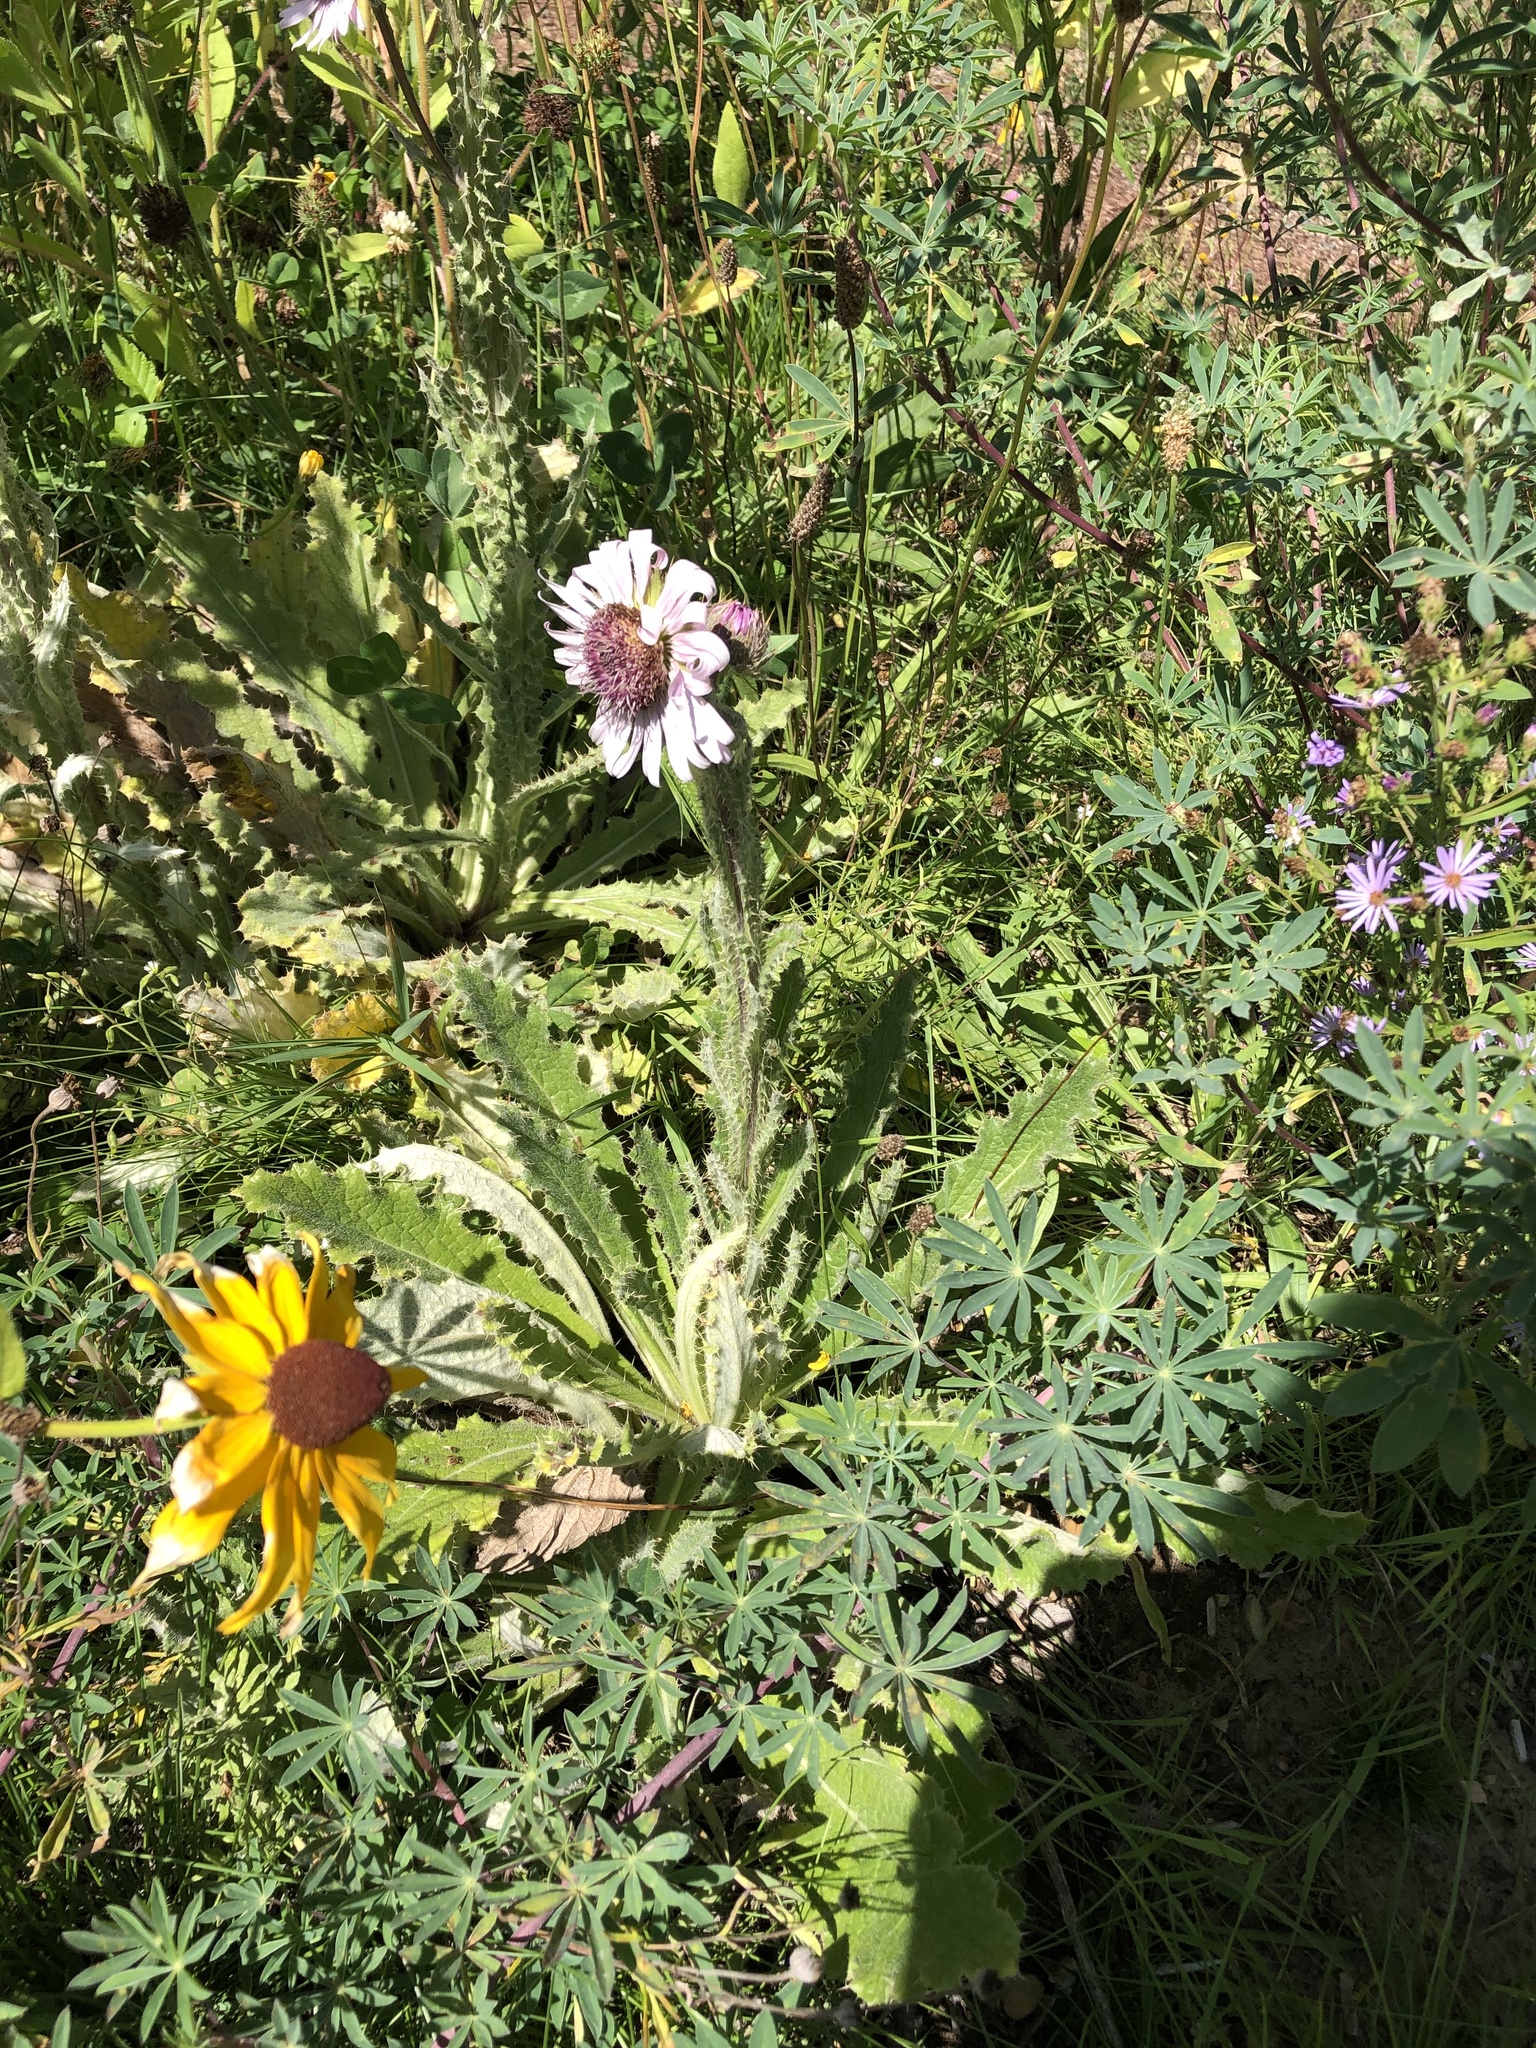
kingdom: Plantae
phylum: Tracheophyta
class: Magnoliopsida
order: Asterales
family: Asteraceae
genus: Berkheya
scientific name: Berkheya purpurea
